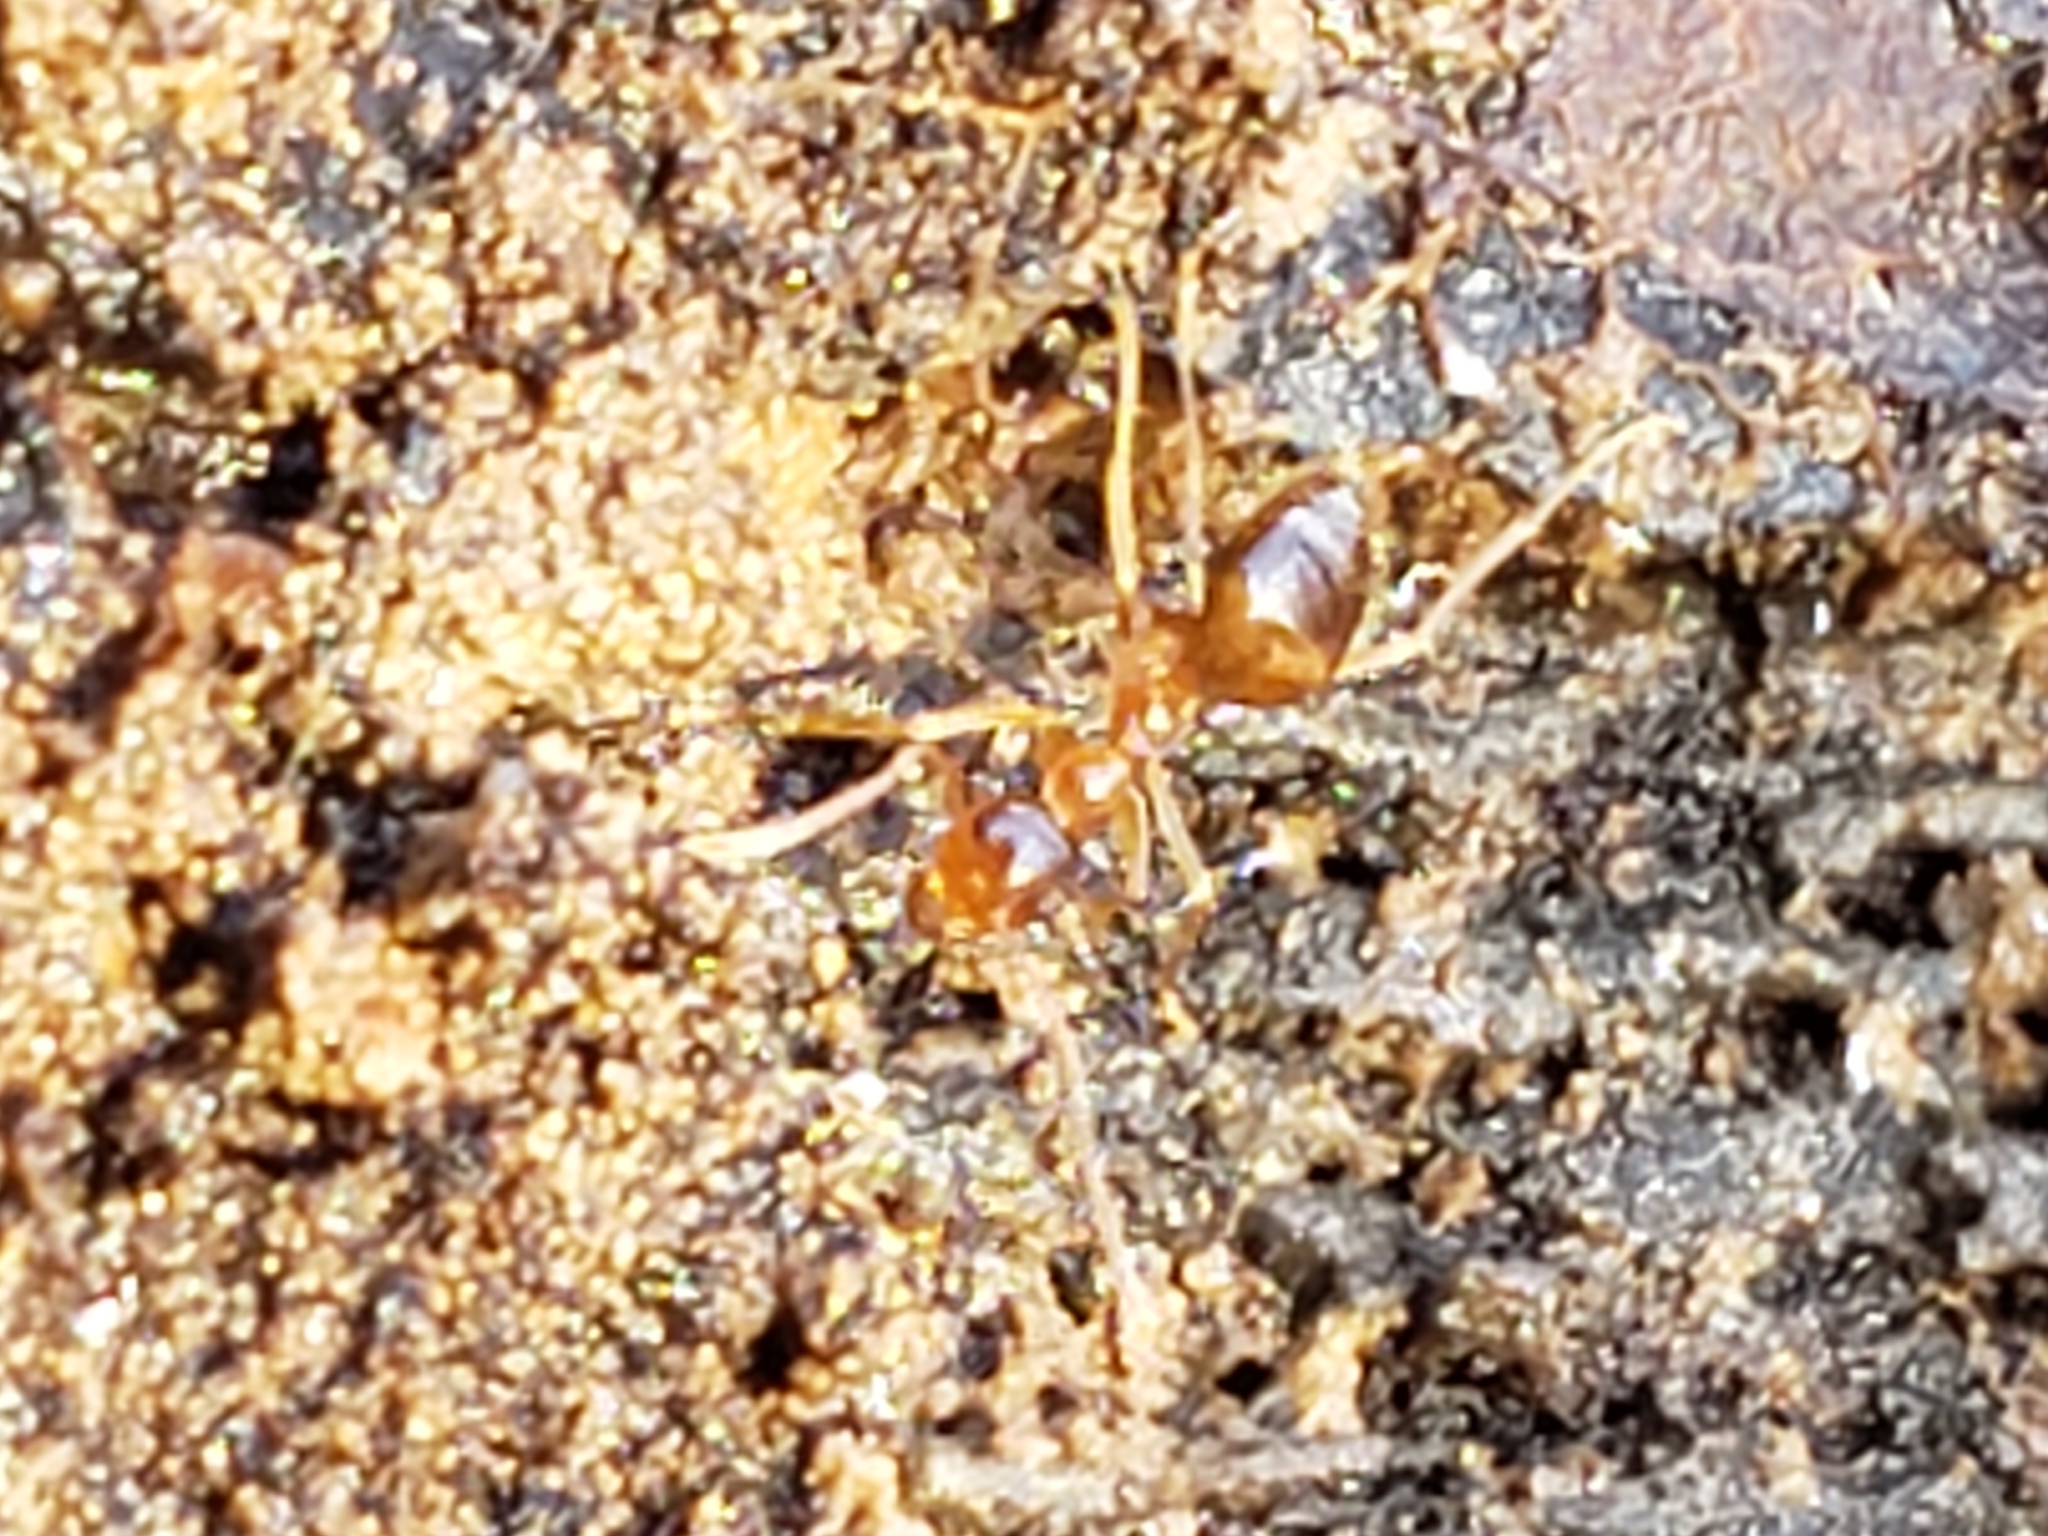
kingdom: Animalia
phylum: Arthropoda
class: Insecta
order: Hymenoptera
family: Formicidae
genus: Prenolepis
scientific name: Prenolepis imparis
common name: Small honey ant
